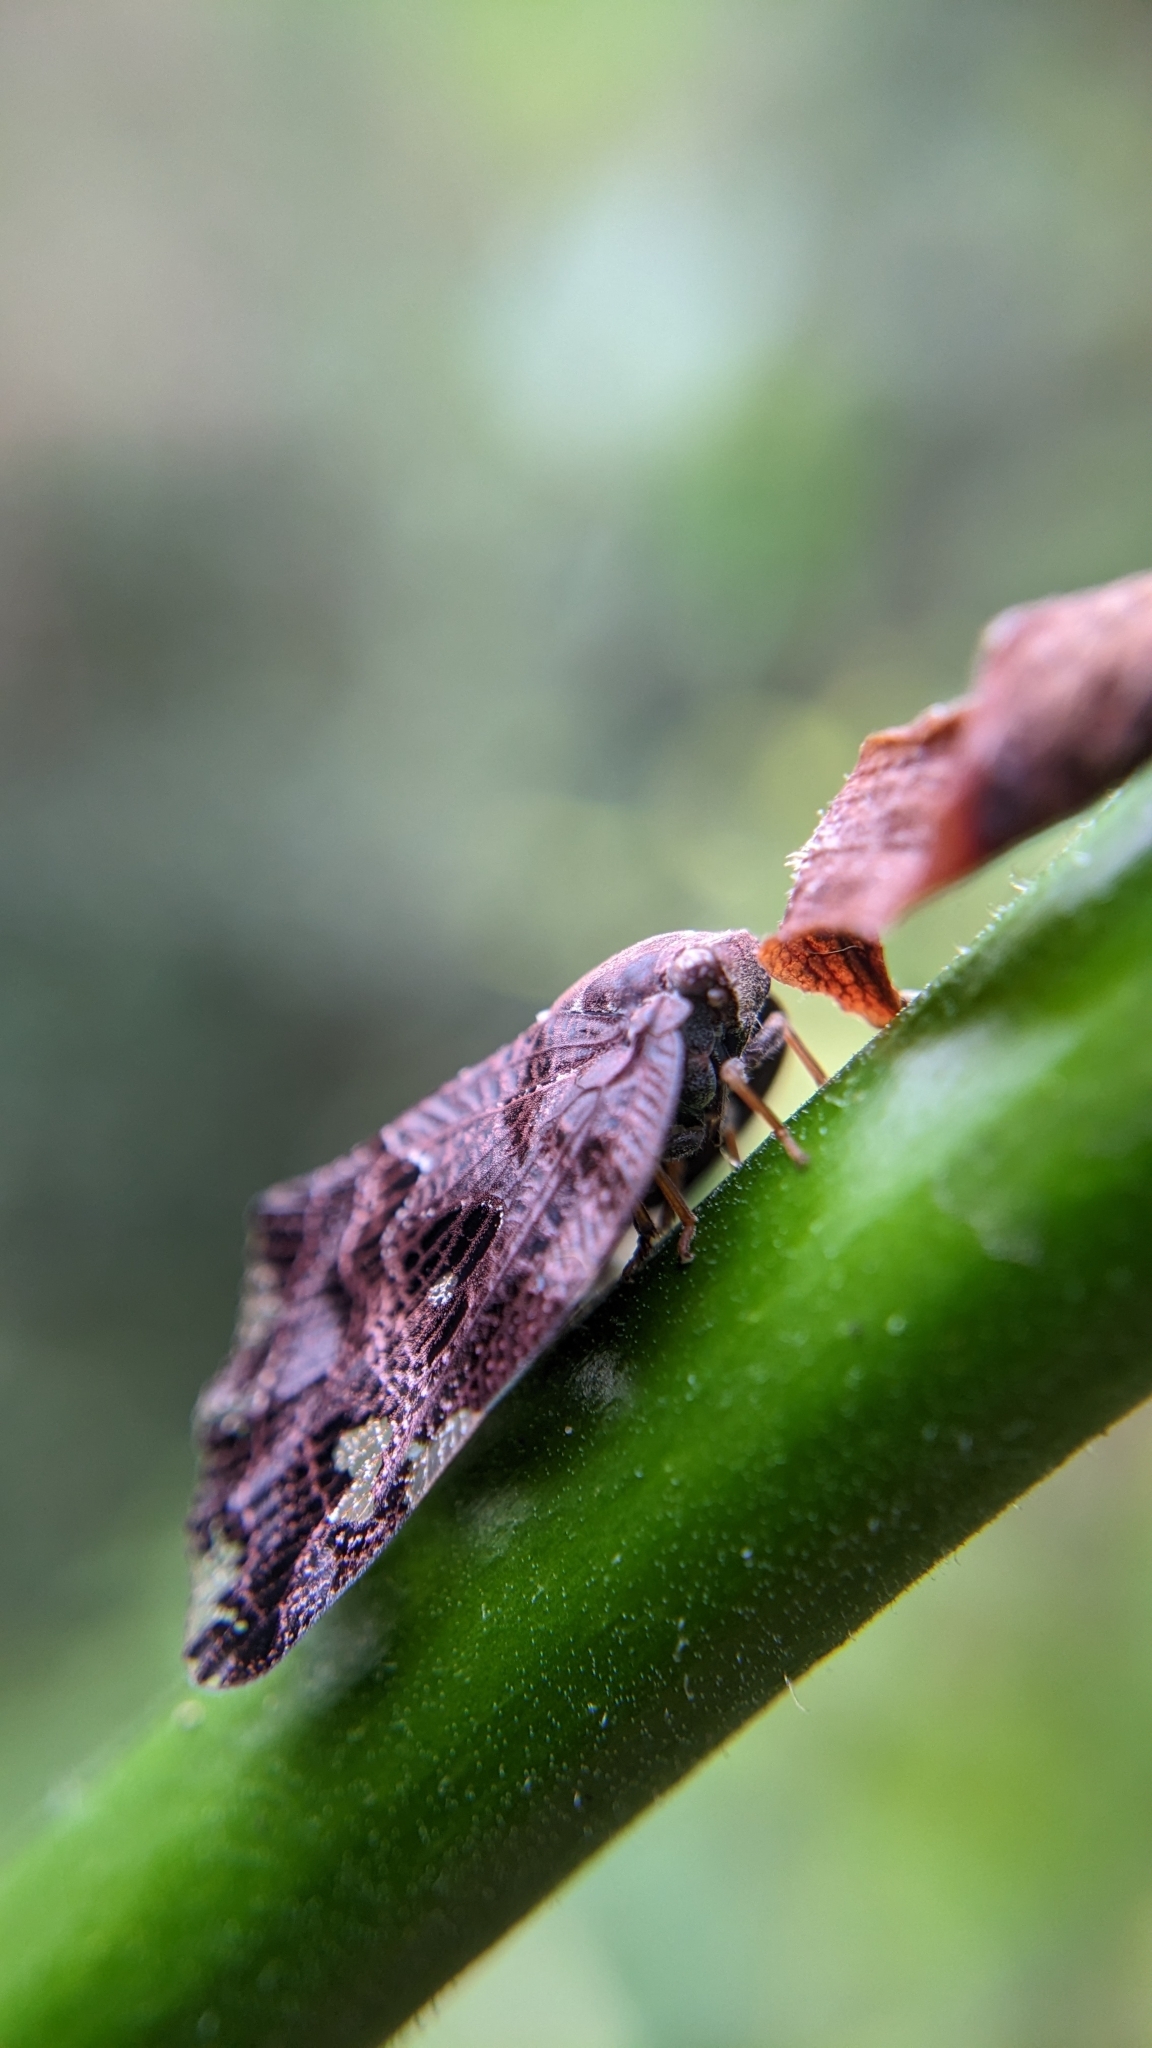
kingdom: Animalia
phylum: Arthropoda
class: Insecta
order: Hemiptera
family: Ricaniidae
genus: Ricania
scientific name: Ricania speculum
